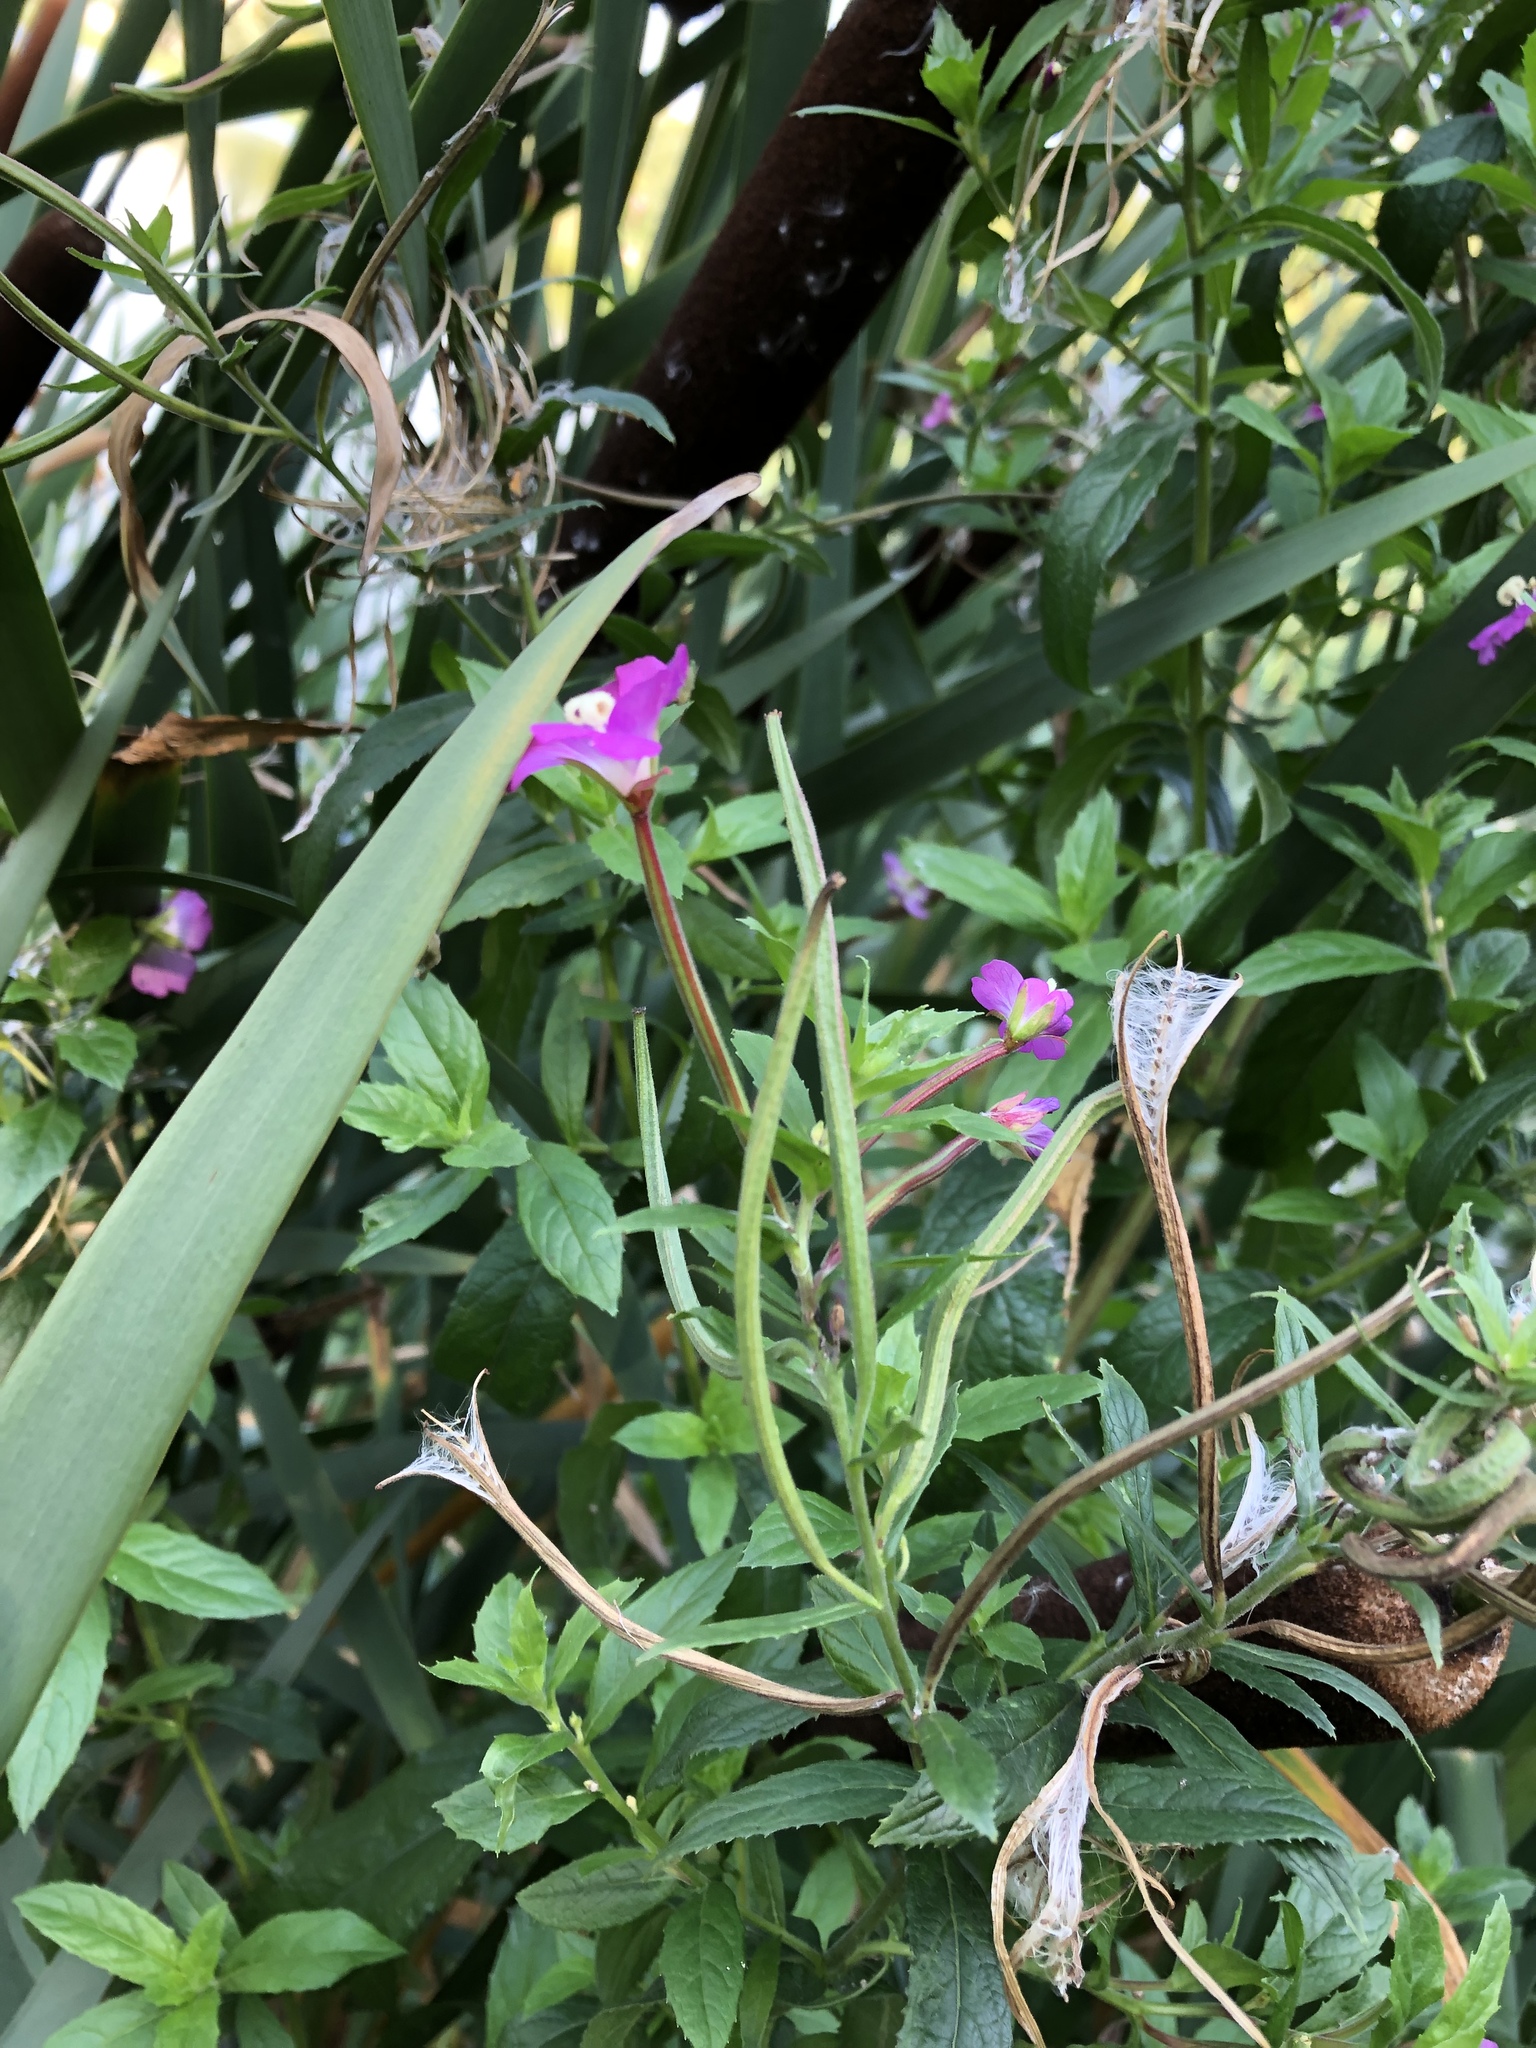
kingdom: Plantae
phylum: Tracheophyta
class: Magnoliopsida
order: Myrtales
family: Onagraceae
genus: Epilobium
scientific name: Epilobium hirsutum
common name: Great willowherb
